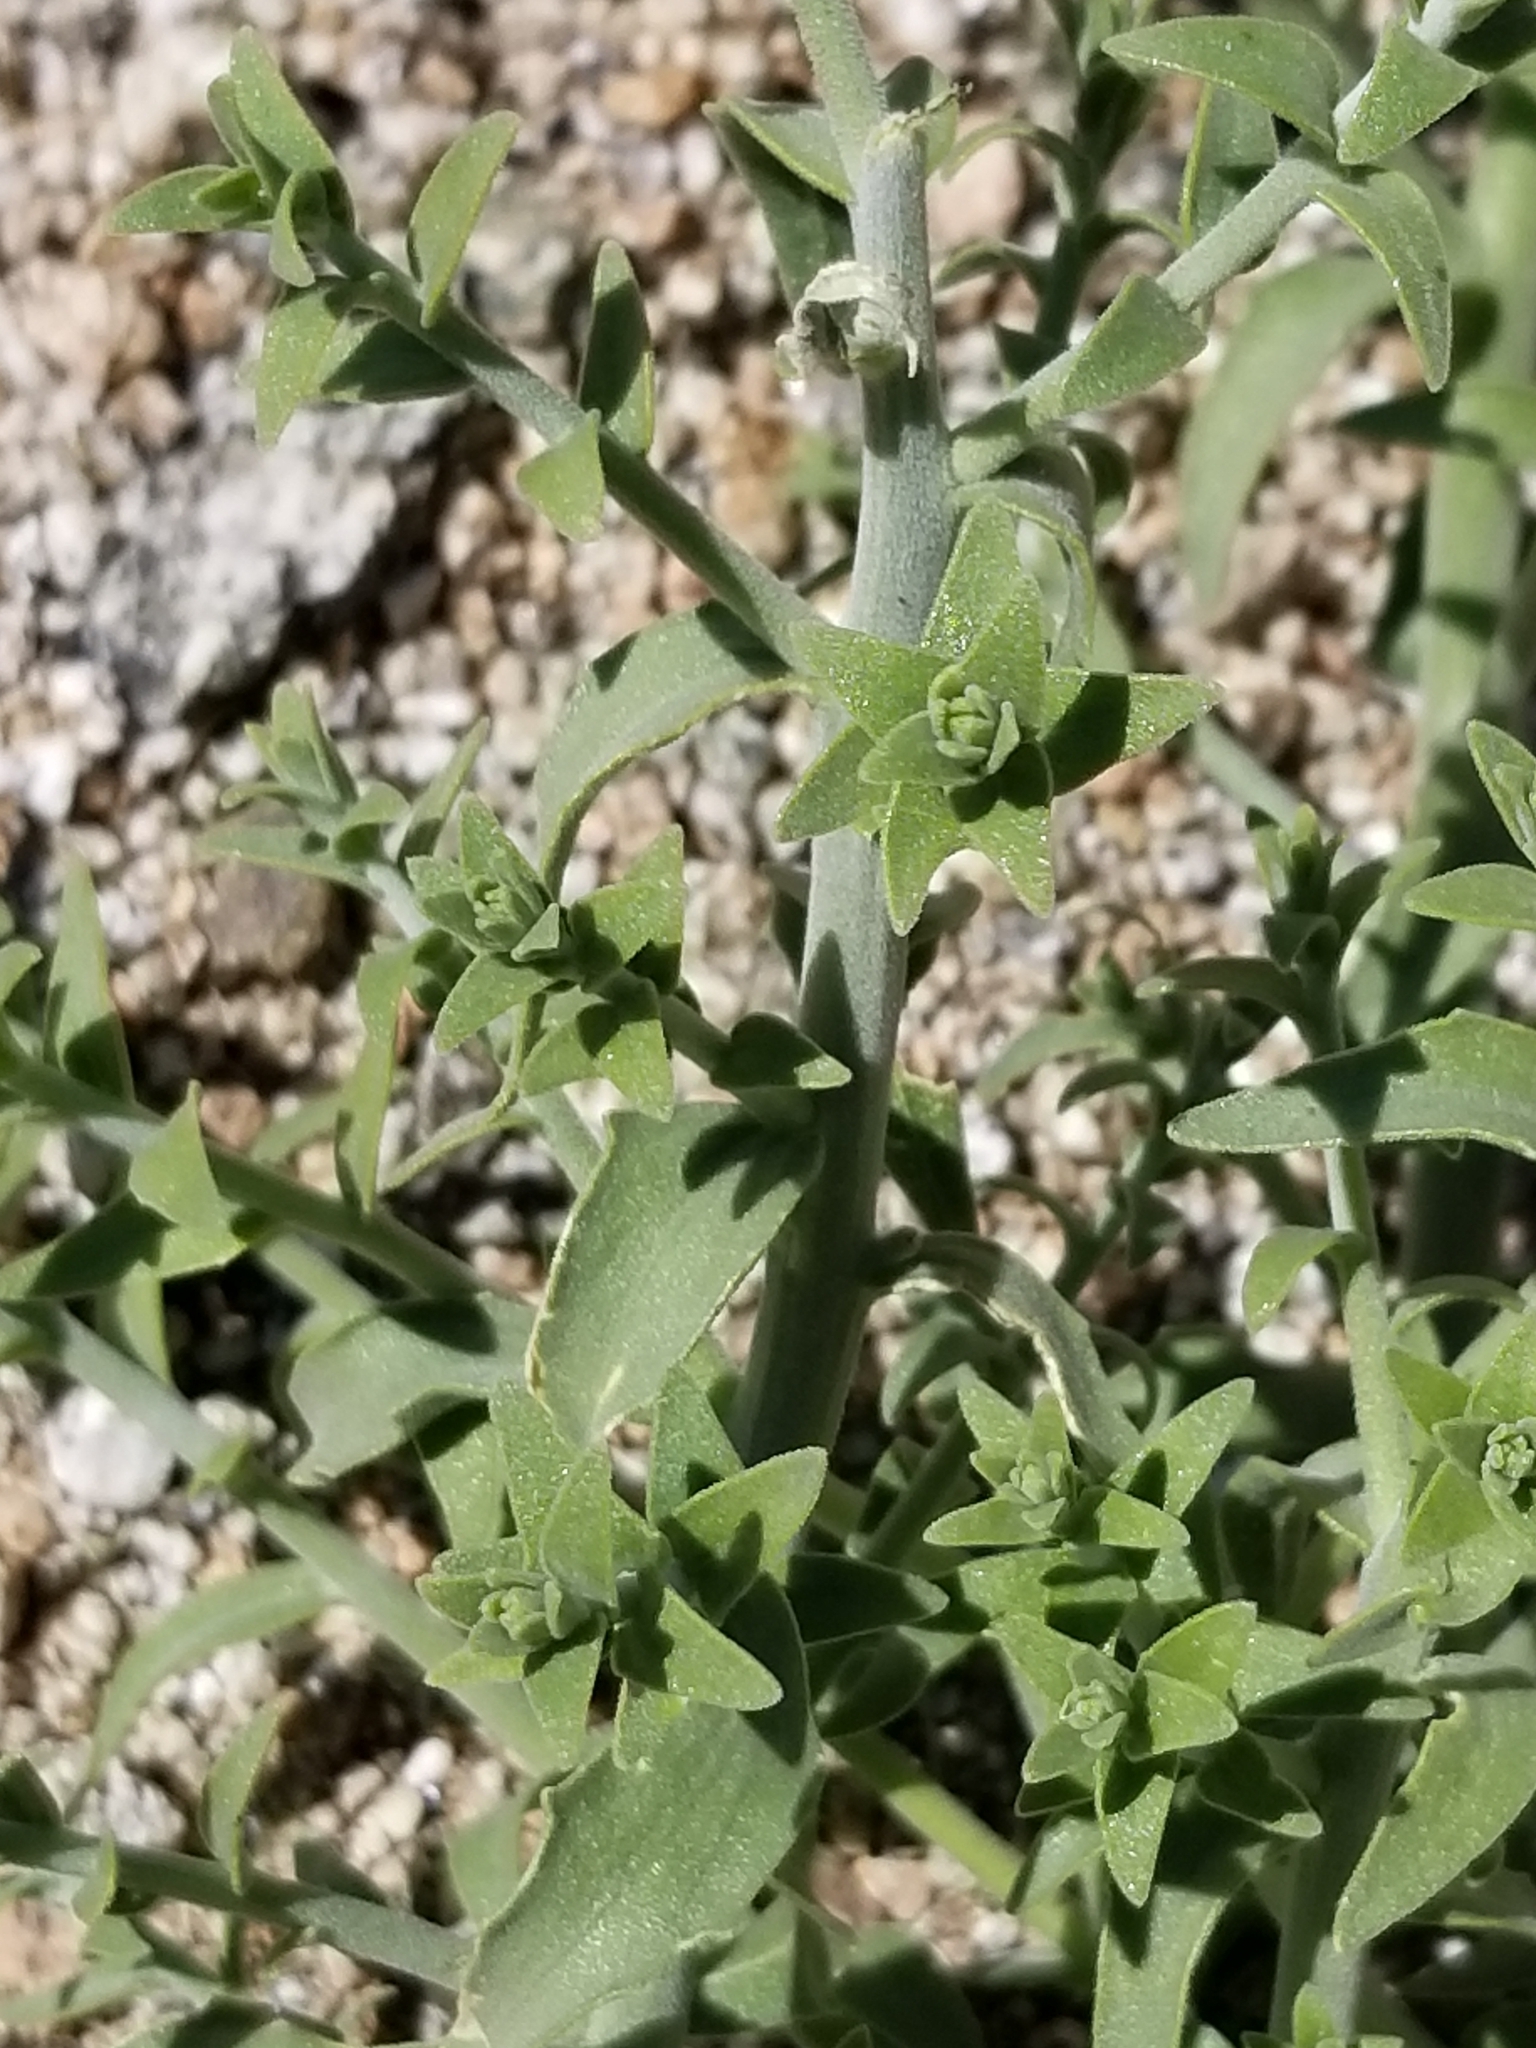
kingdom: Plantae
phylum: Tracheophyta
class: Magnoliopsida
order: Cornales
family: Loasaceae
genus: Petalonyx
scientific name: Petalonyx thurberi
